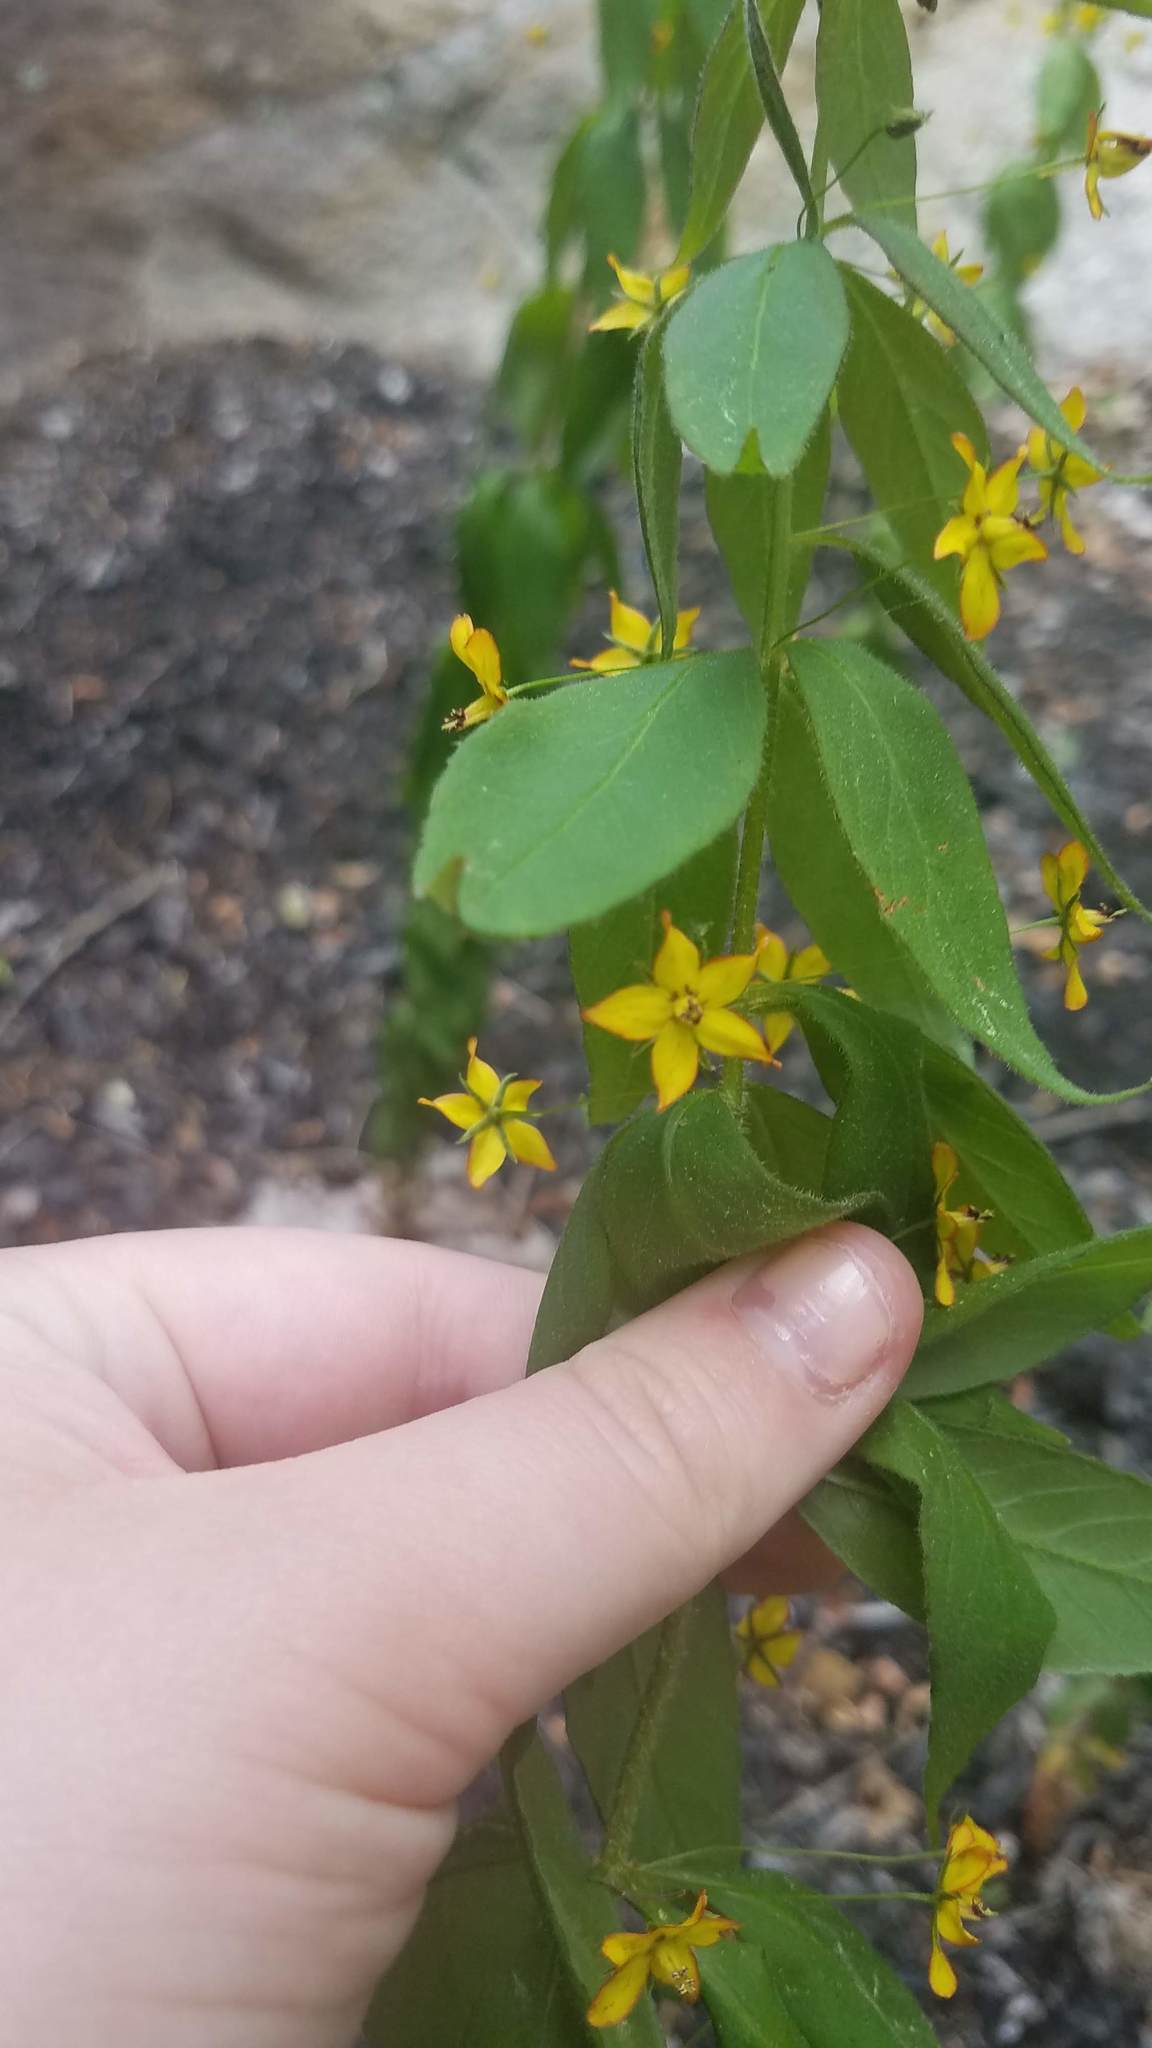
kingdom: Plantae
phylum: Tracheophyta
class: Magnoliopsida
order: Ericales
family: Primulaceae
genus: Lysimachia
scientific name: Lysimachia quadrifolia
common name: Whorled loosestrife
